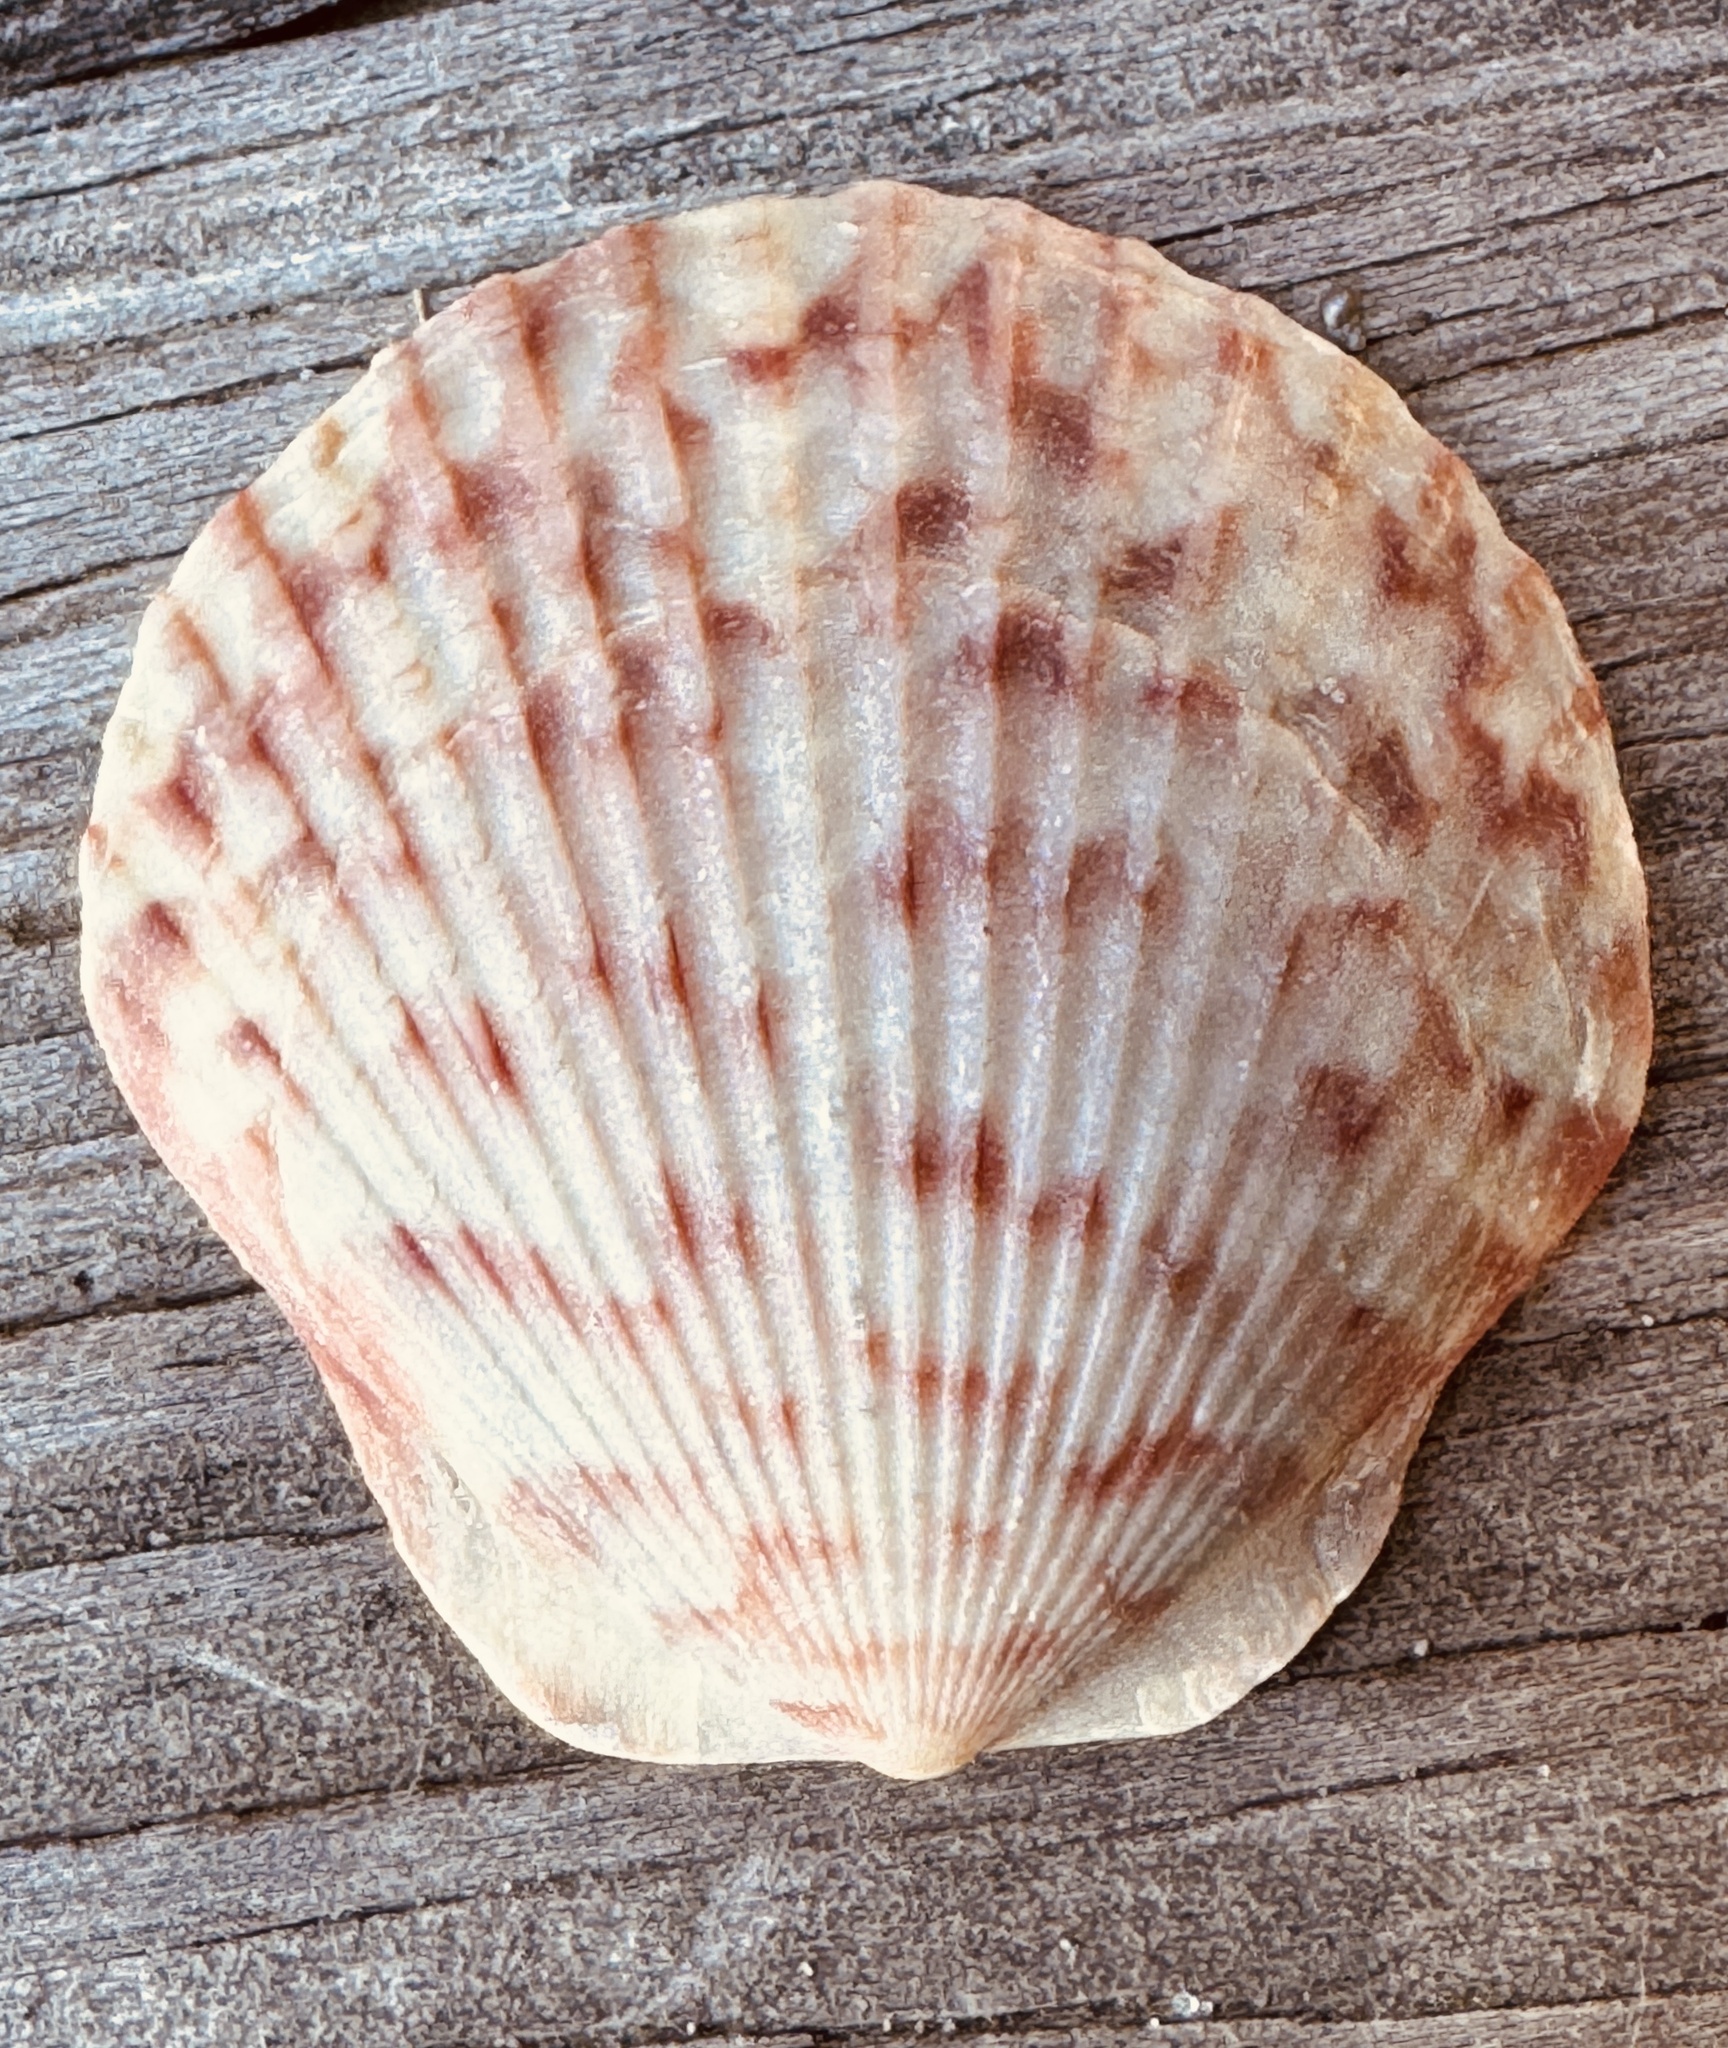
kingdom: Animalia
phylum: Mollusca
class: Bivalvia
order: Pectinida
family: Pectinidae
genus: Argopecten
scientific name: Argopecten gibbus
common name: Atlantic calico scallop
